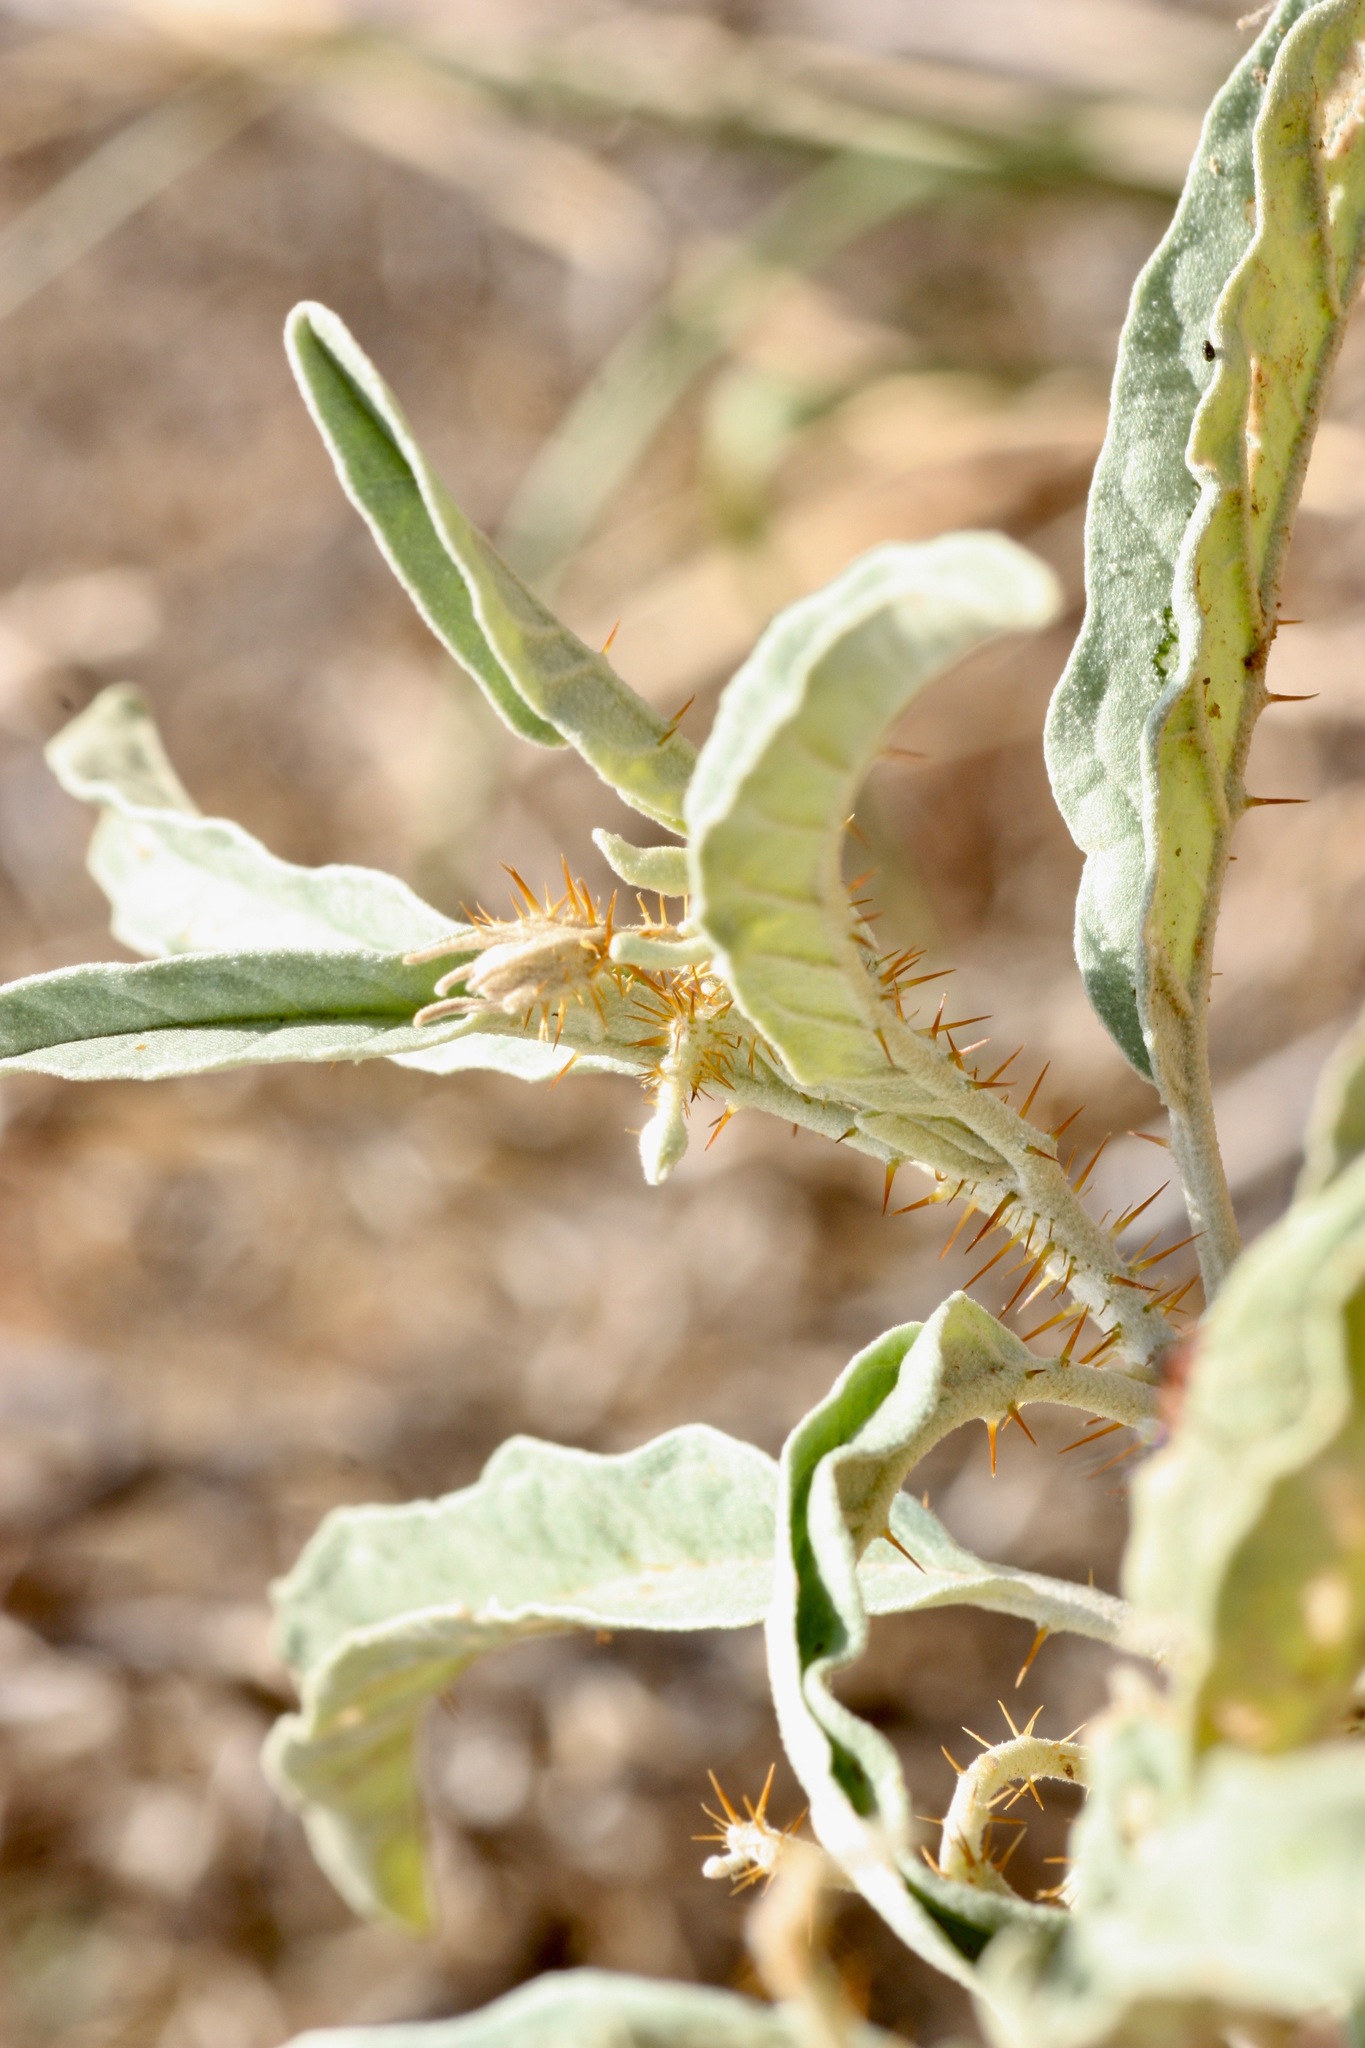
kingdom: Plantae
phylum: Tracheophyta
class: Magnoliopsida
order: Solanales
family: Solanaceae
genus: Solanum
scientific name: Solanum elaeagnifolium
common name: Silverleaf nightshade
